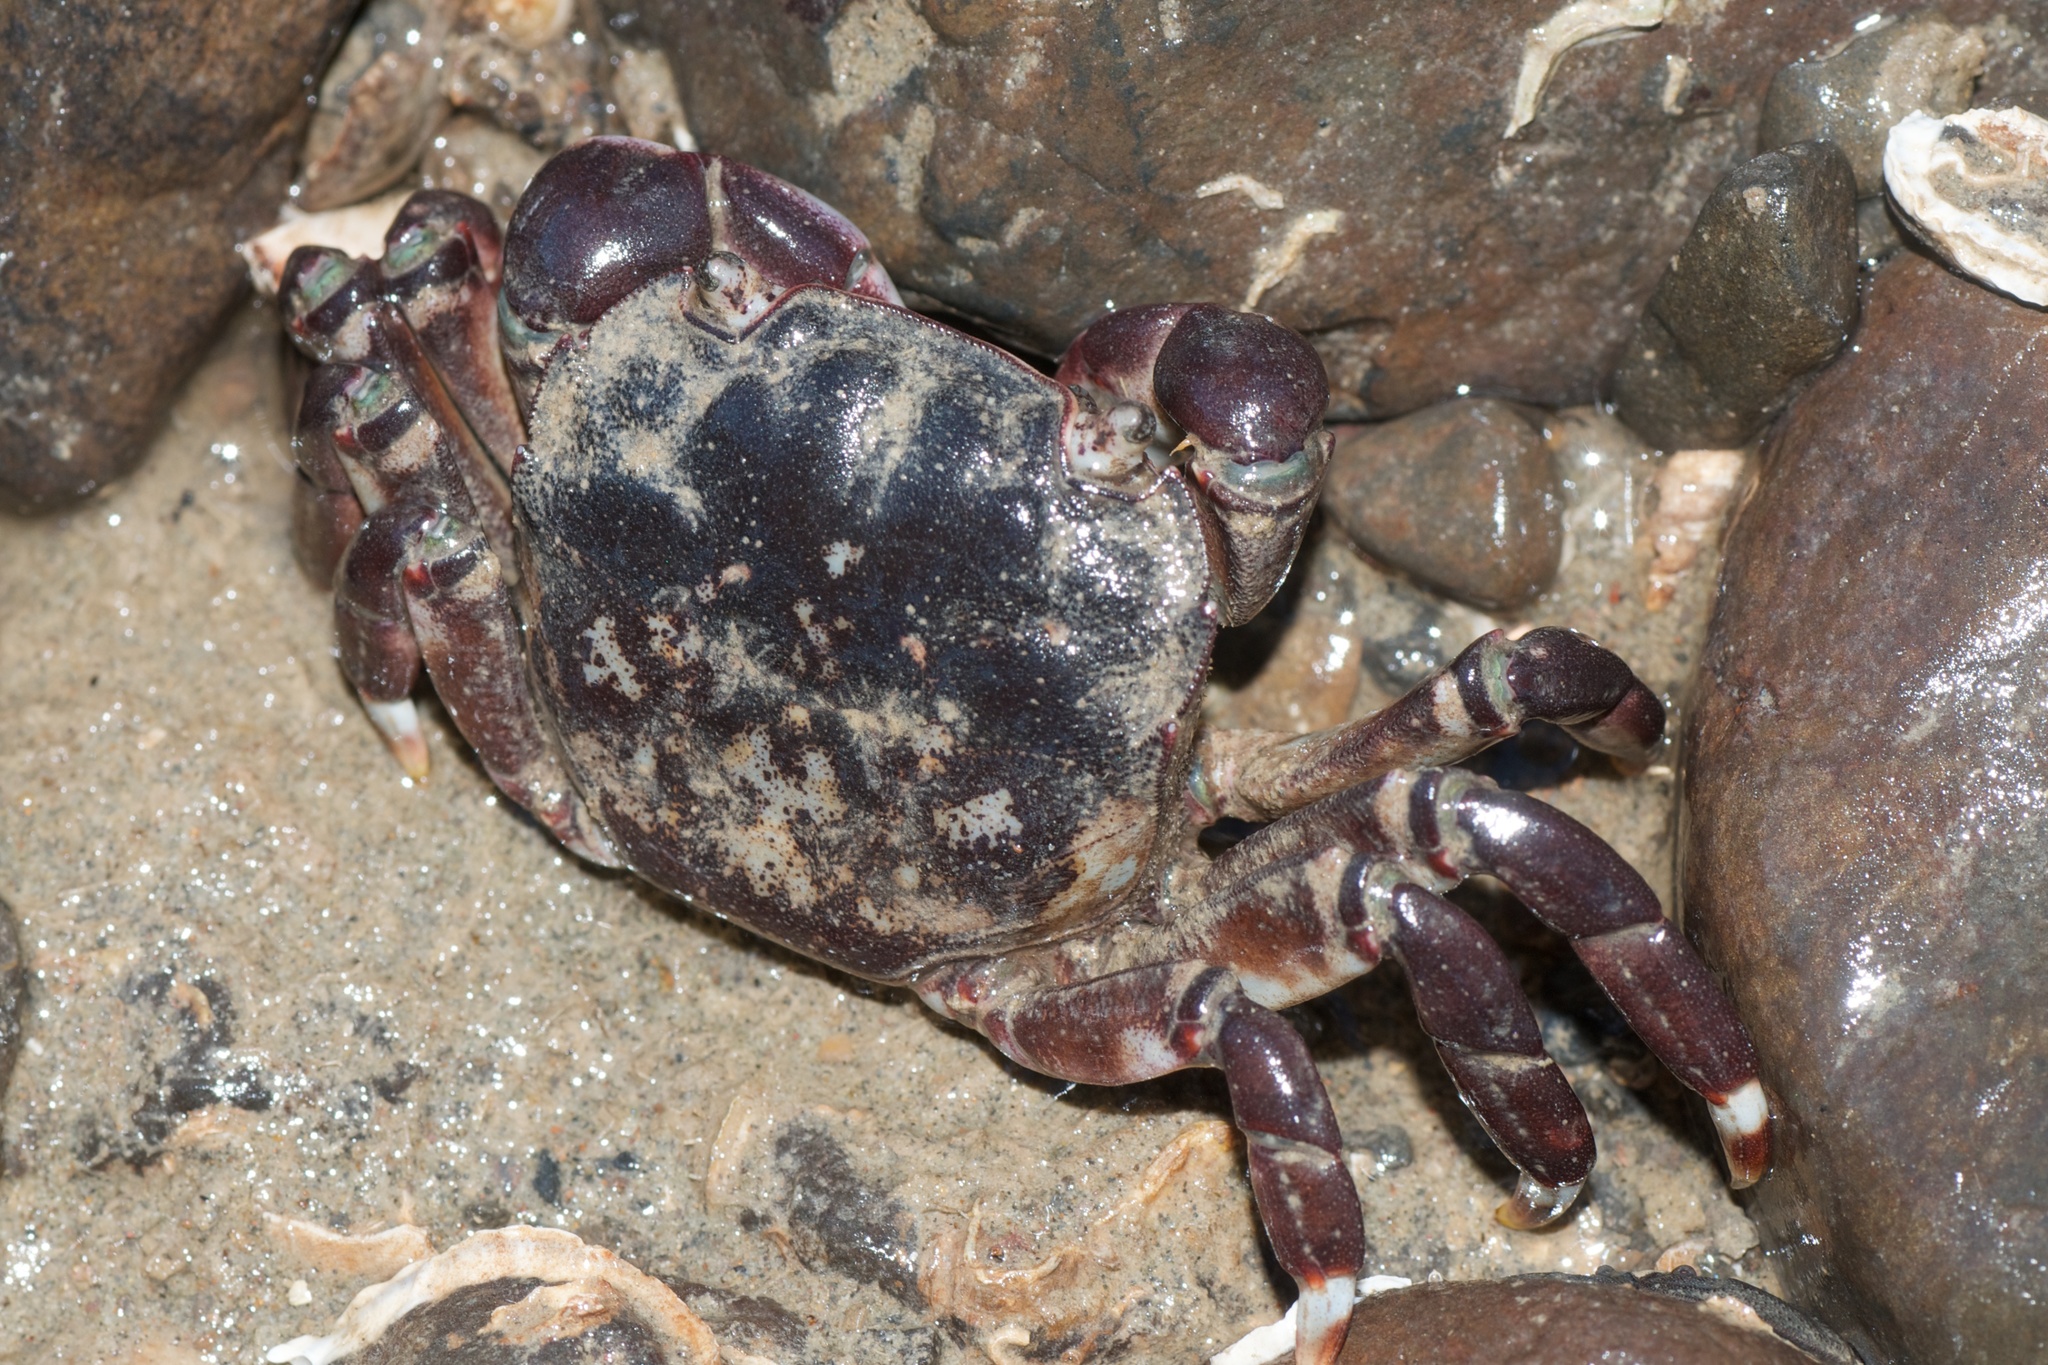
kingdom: Animalia
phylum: Arthropoda
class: Malacostraca
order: Decapoda
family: Varunidae
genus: Hemigrapsus
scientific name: Hemigrapsus sexdentatus
